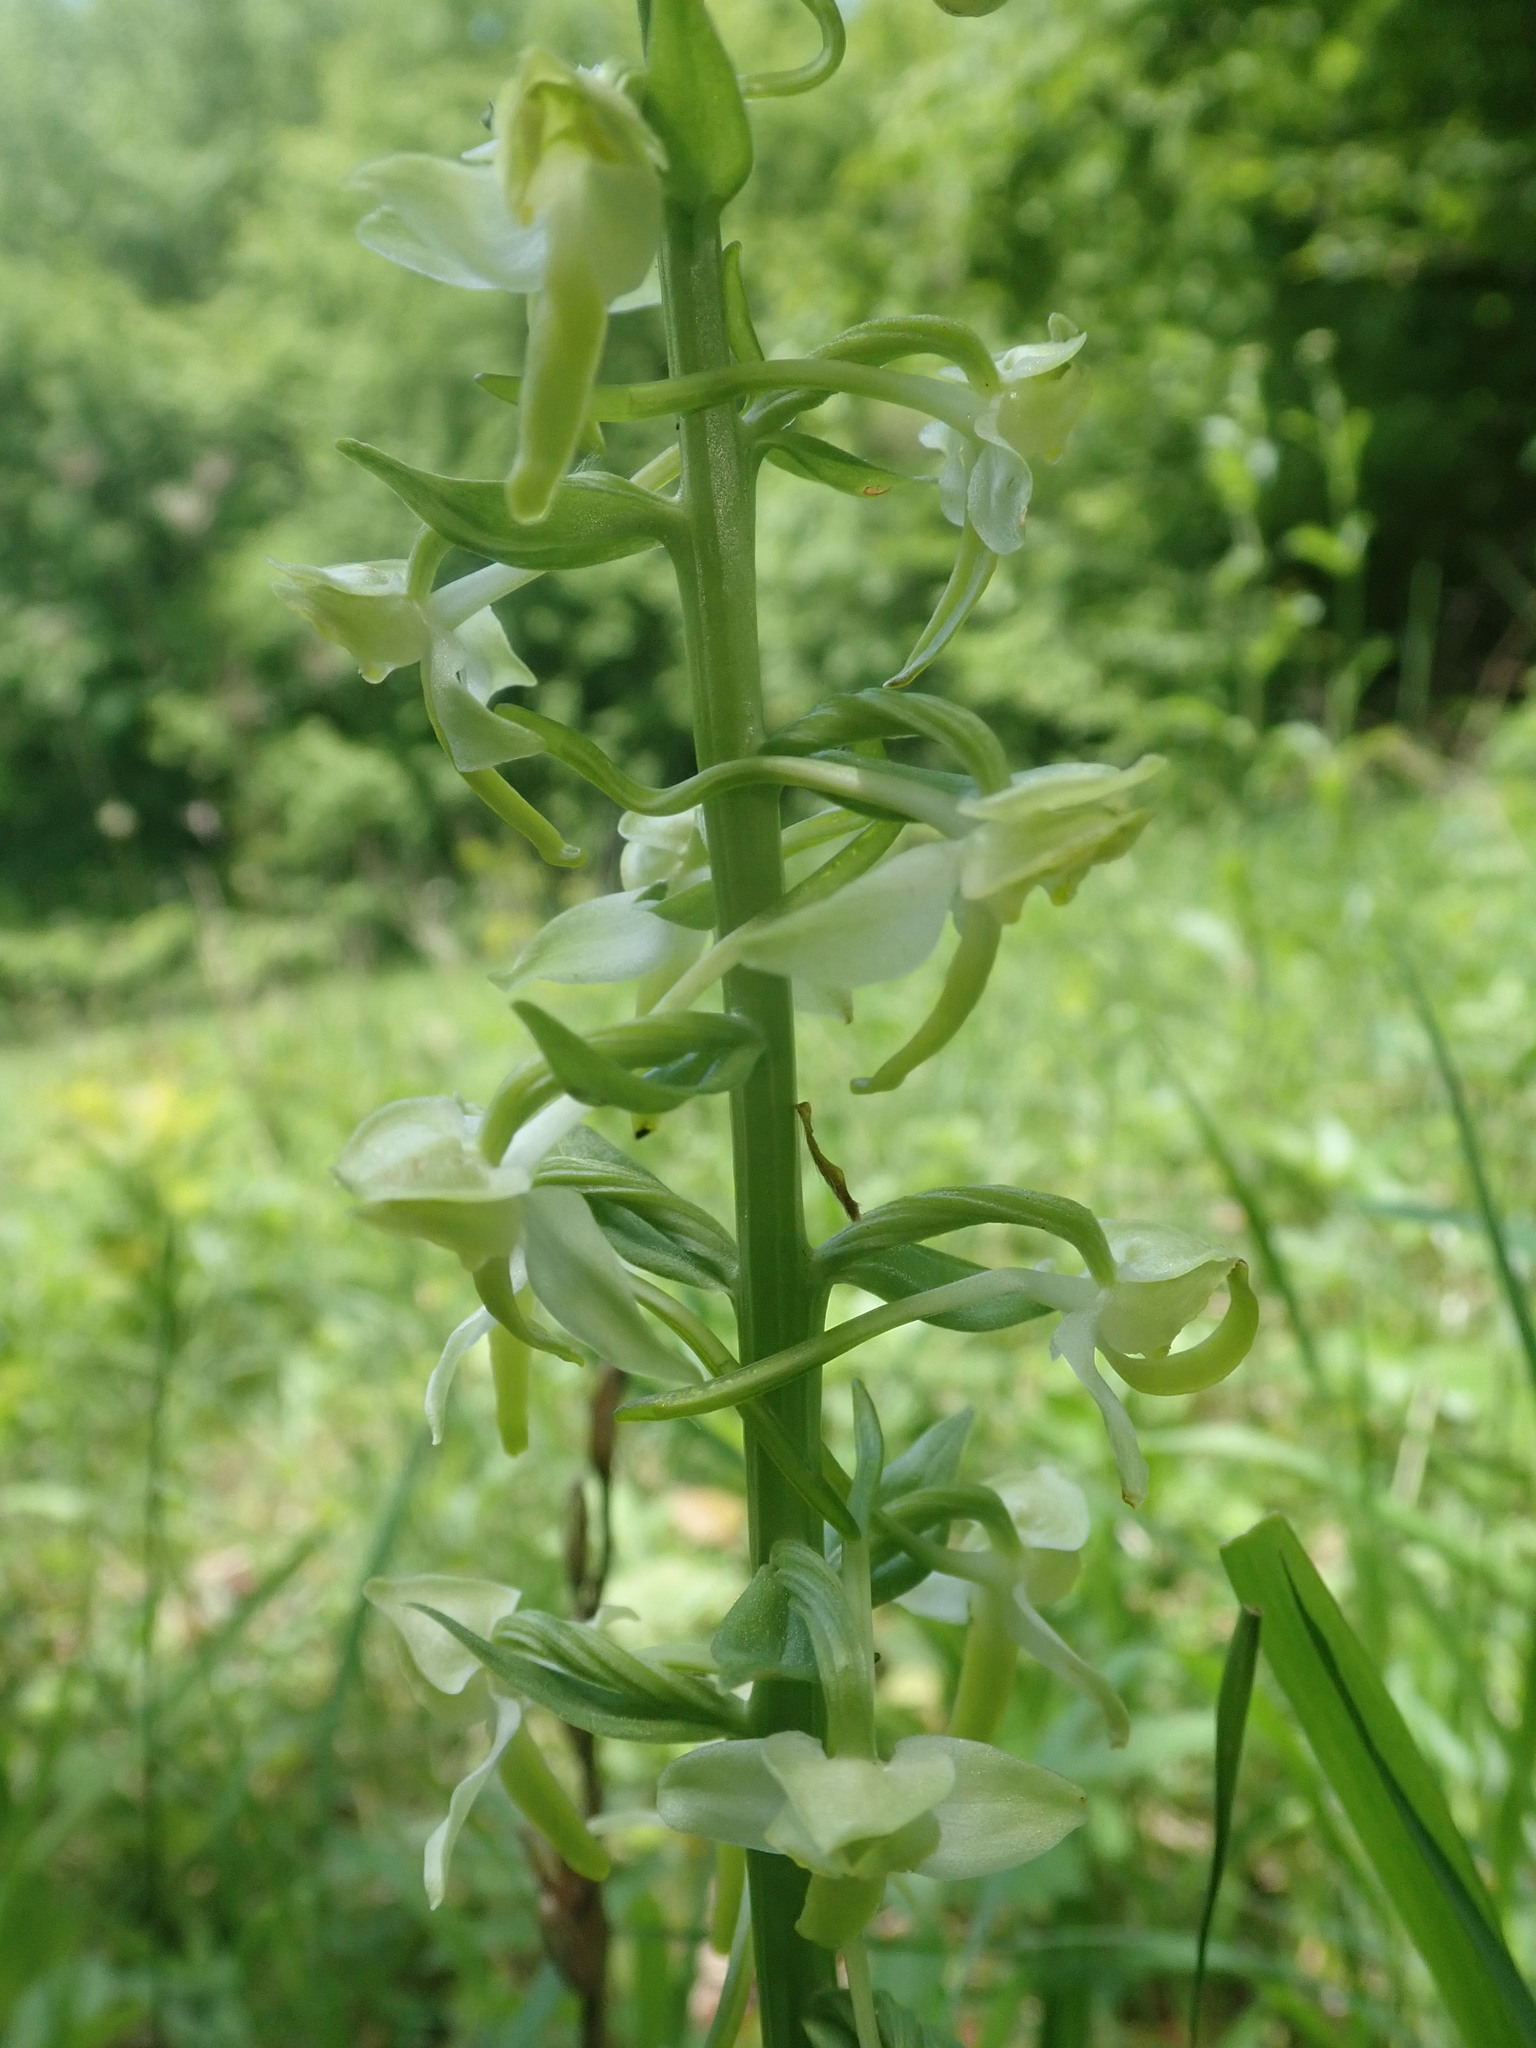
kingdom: Plantae
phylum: Tracheophyta
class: Liliopsida
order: Asparagales
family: Orchidaceae
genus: Platanthera
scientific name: Platanthera chlorantha
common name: Greater butterfly-orchid
